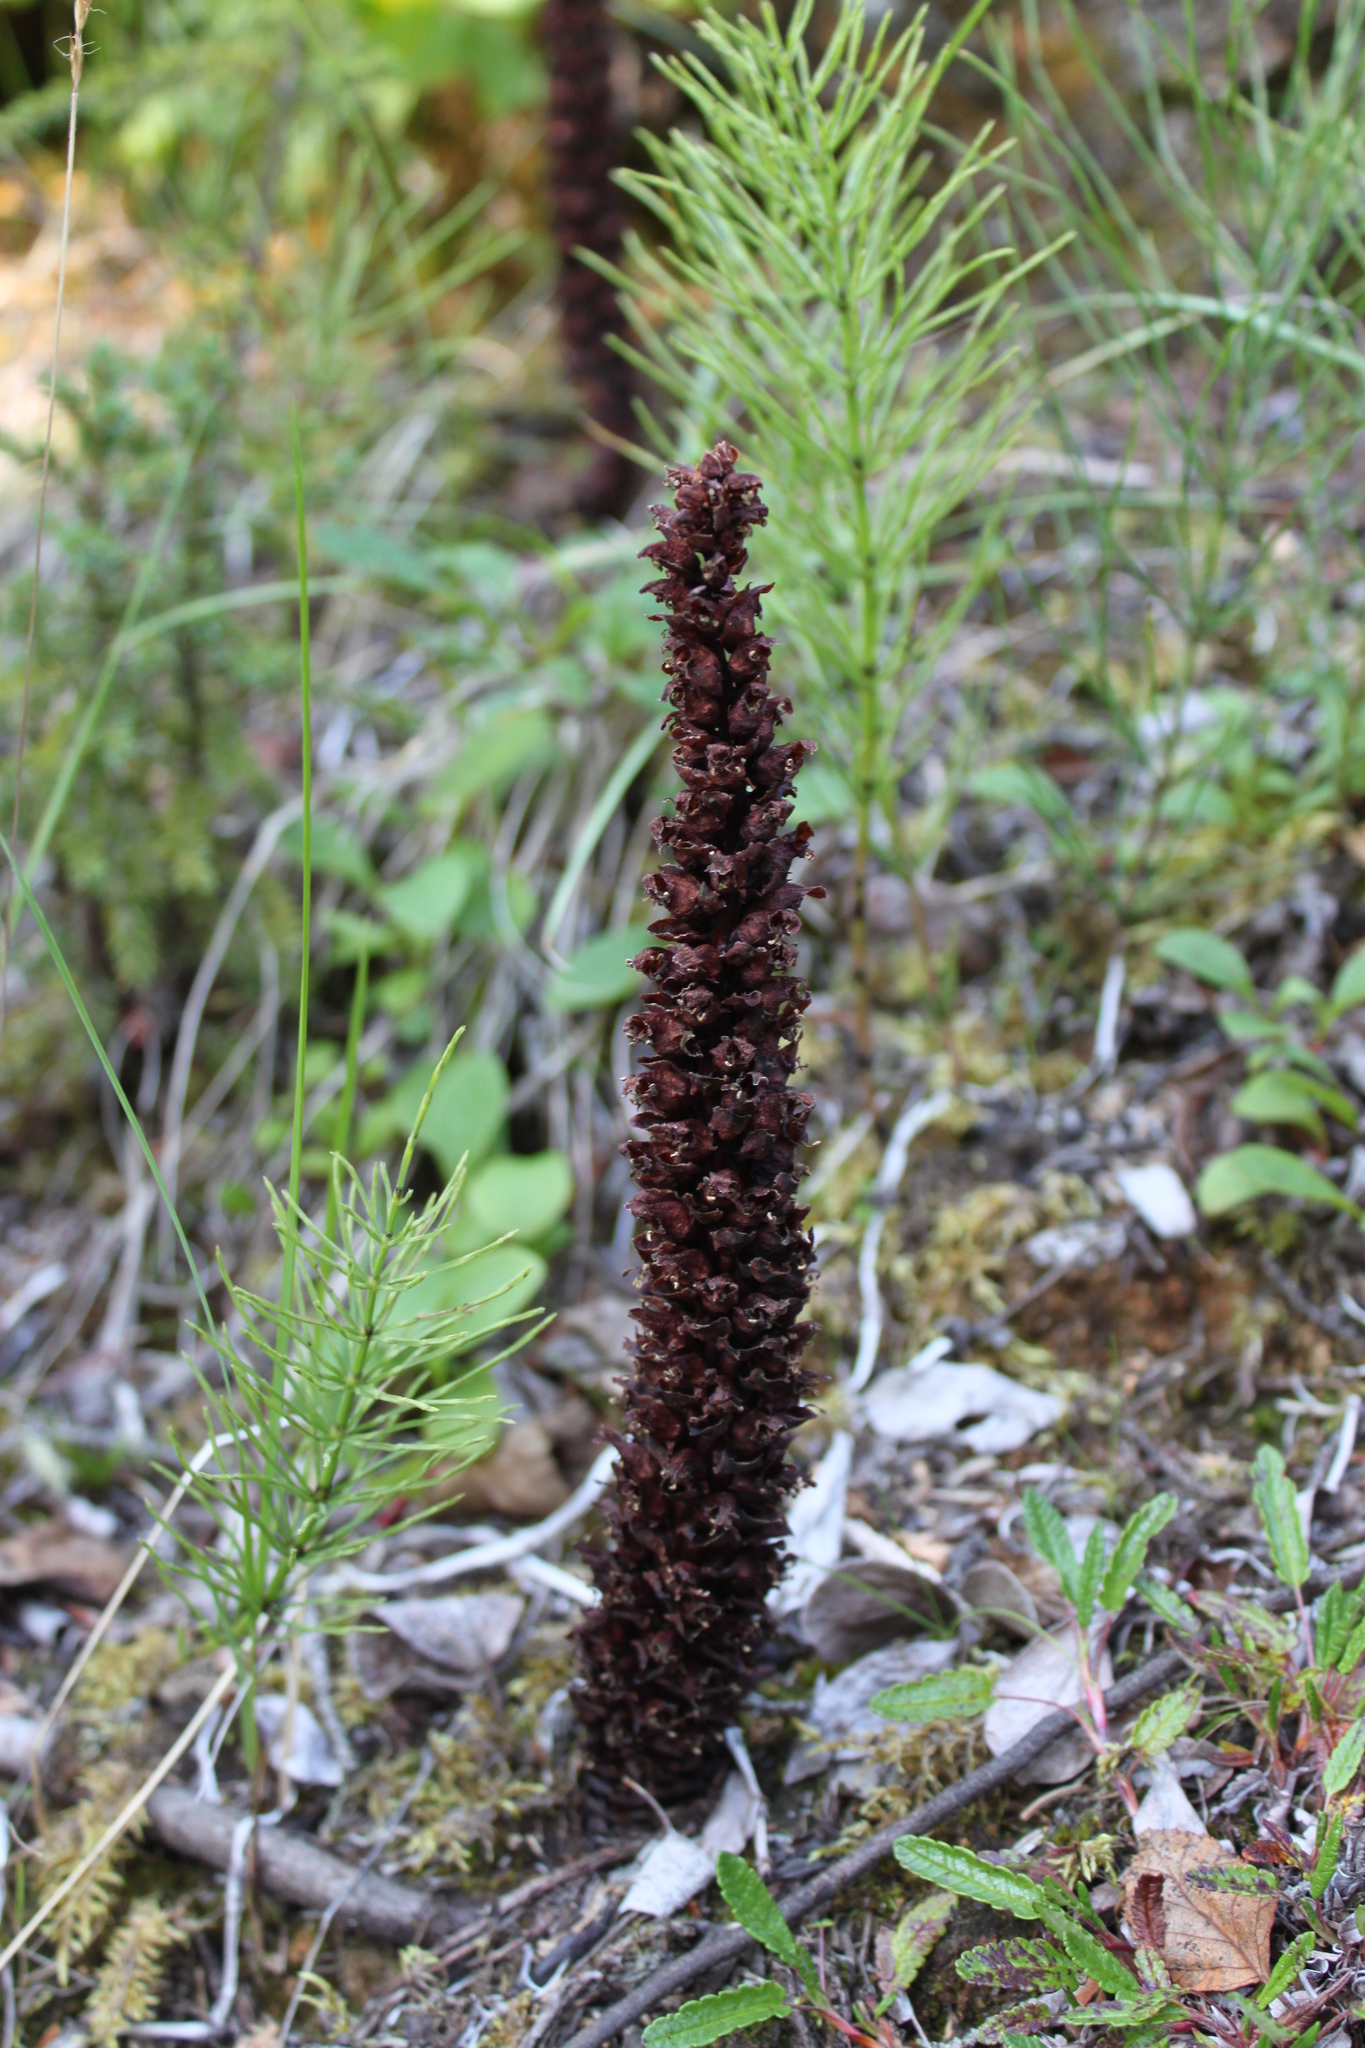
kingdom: Plantae
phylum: Tracheophyta
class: Magnoliopsida
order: Lamiales
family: Orobanchaceae
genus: Boschniakia
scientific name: Boschniakia rossica
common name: Poque
